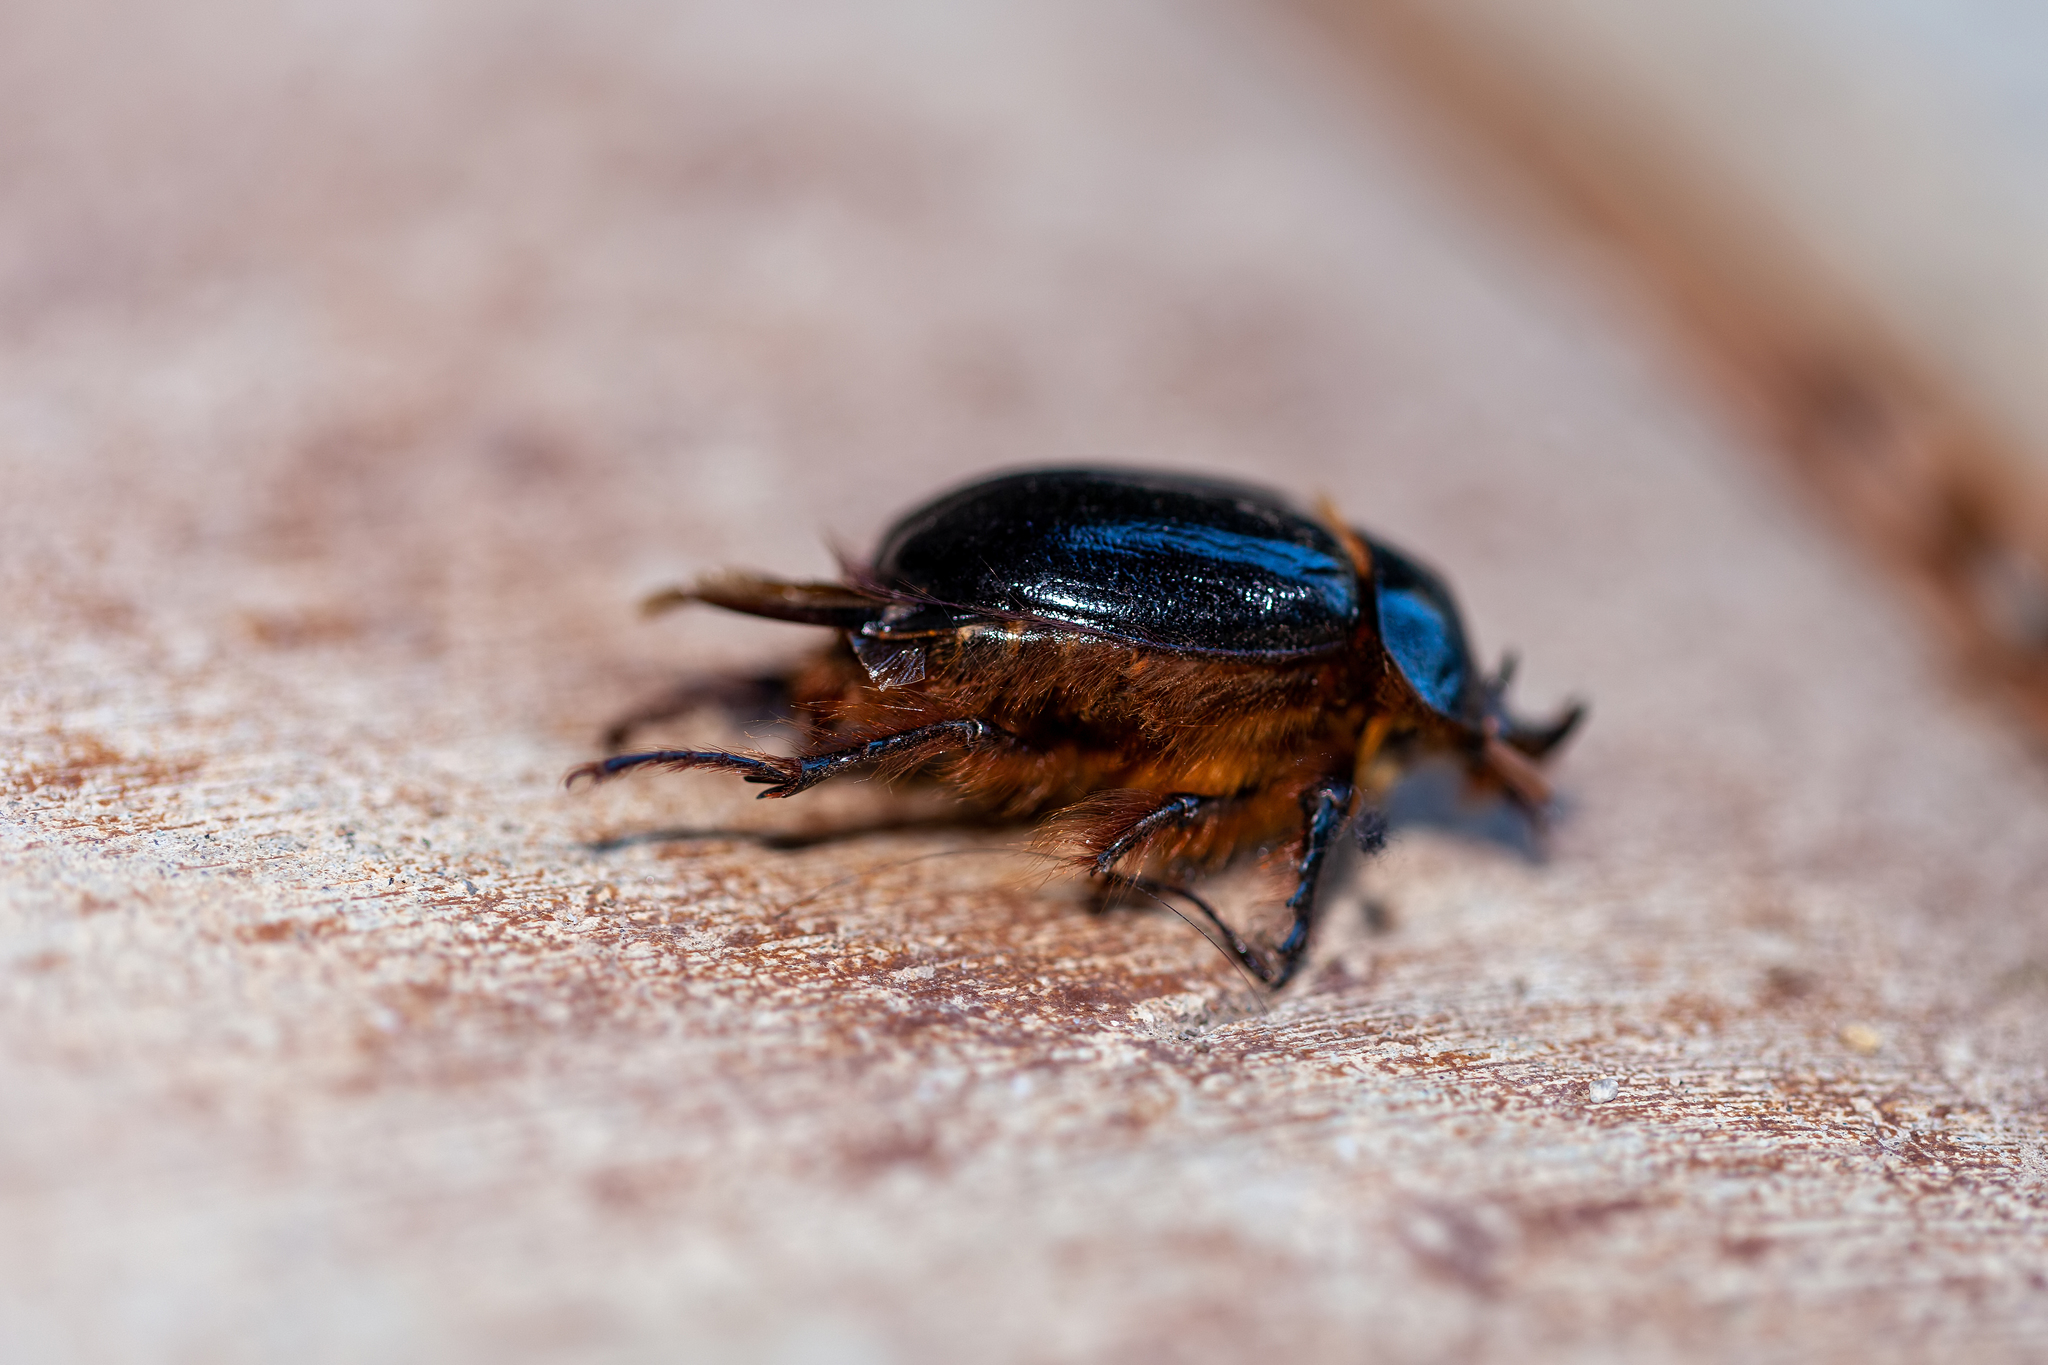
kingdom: Animalia
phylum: Arthropoda
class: Insecta
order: Coleoptera
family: Pleocomidae
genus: Pleocoma
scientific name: Pleocoma fimbriata
